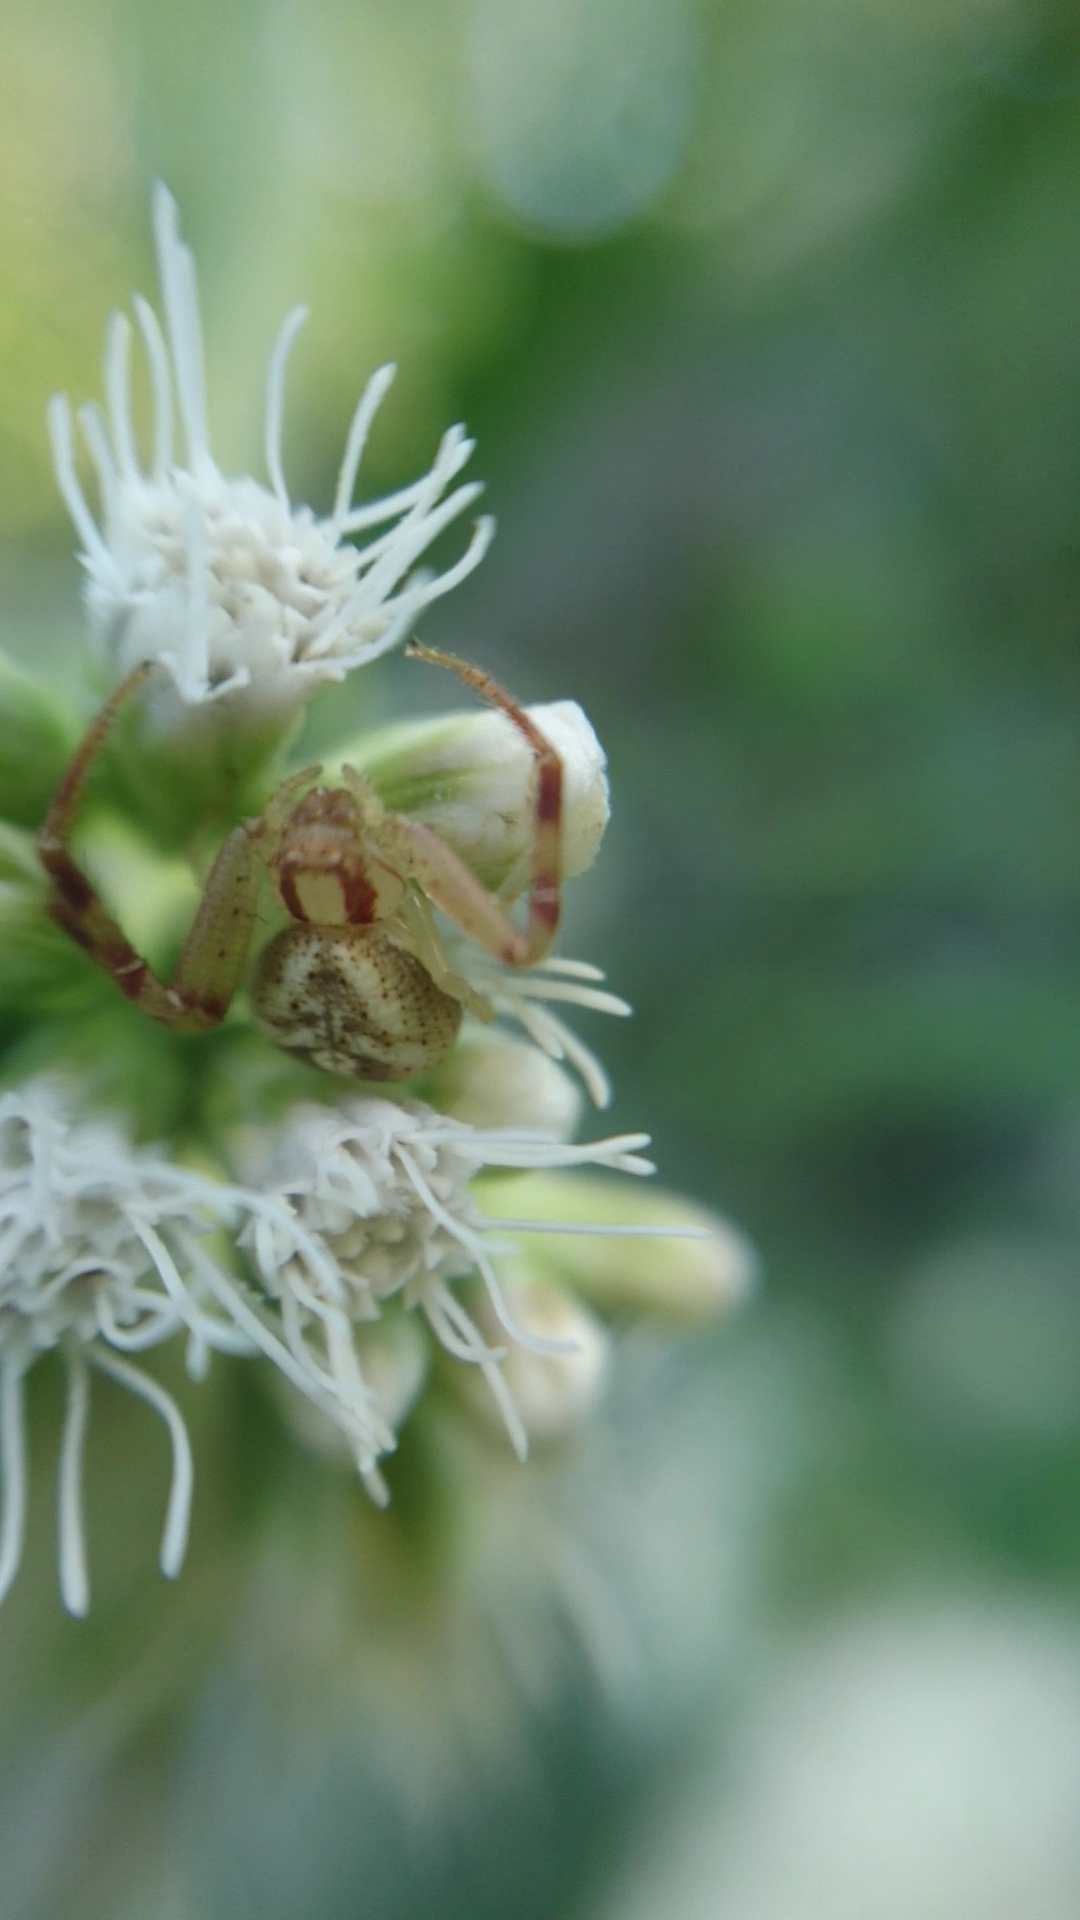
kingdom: Animalia
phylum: Arthropoda
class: Arachnida
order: Araneae
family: Thomisidae
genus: Misumenops
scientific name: Misumenops
